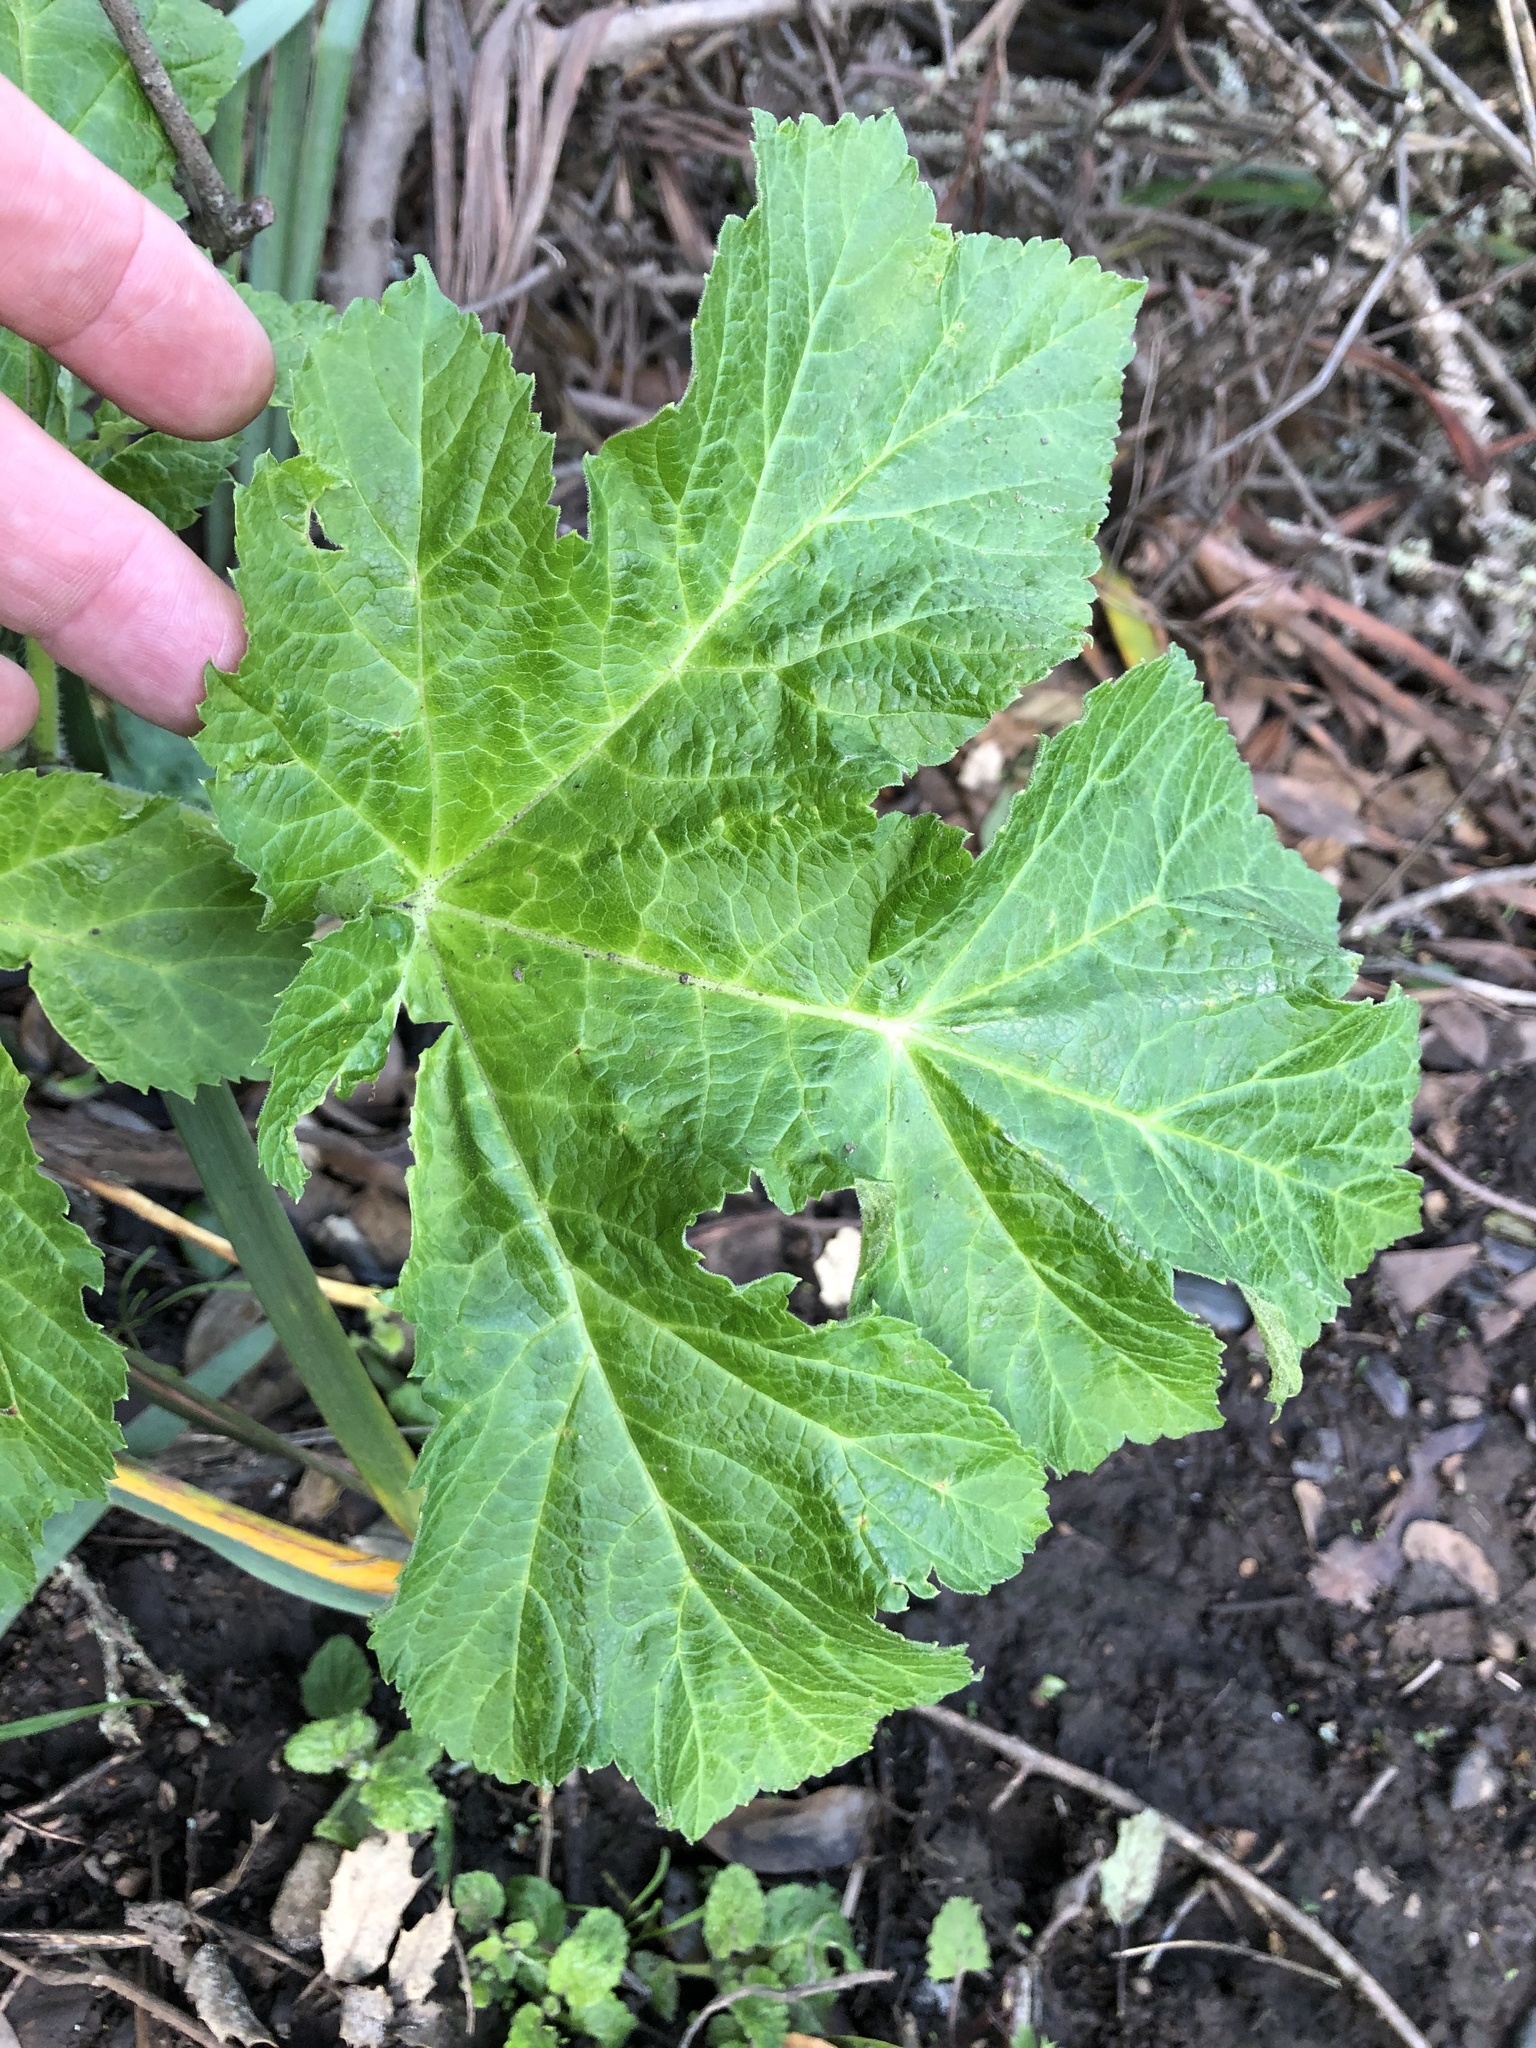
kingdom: Plantae
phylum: Tracheophyta
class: Magnoliopsida
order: Apiales
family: Apiaceae
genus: Heracleum
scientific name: Heracleum maximum
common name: American cow parsnip
